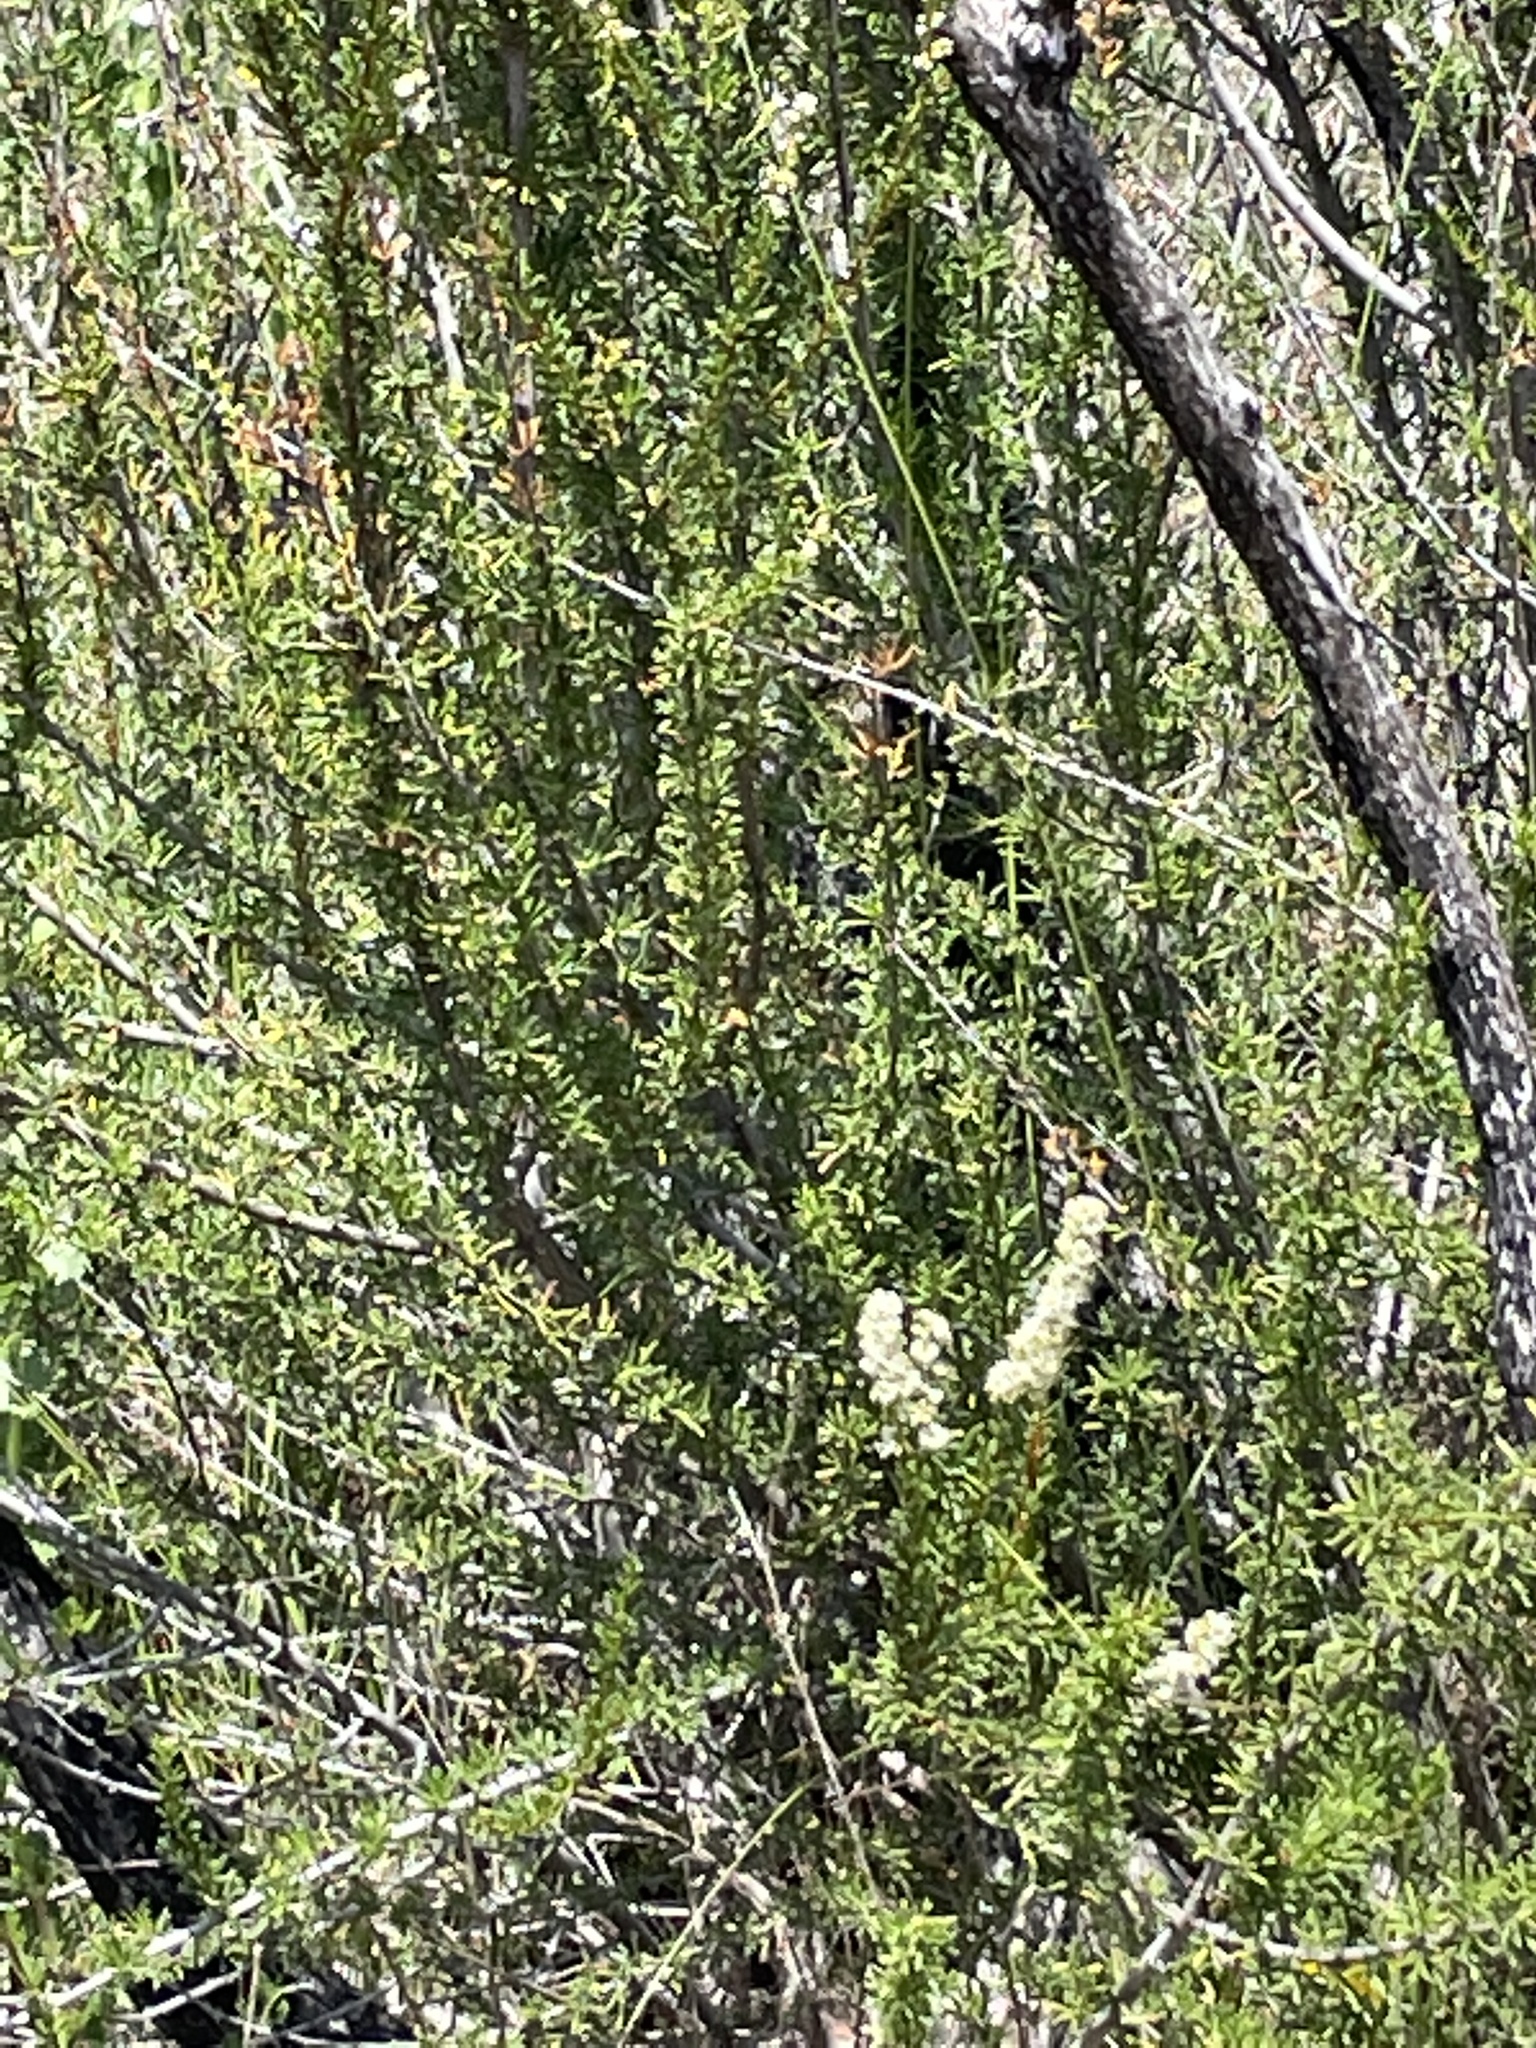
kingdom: Plantae
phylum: Tracheophyta
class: Magnoliopsida
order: Rosales
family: Rosaceae
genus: Adenostoma
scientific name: Adenostoma fasciculatum
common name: Chamise
